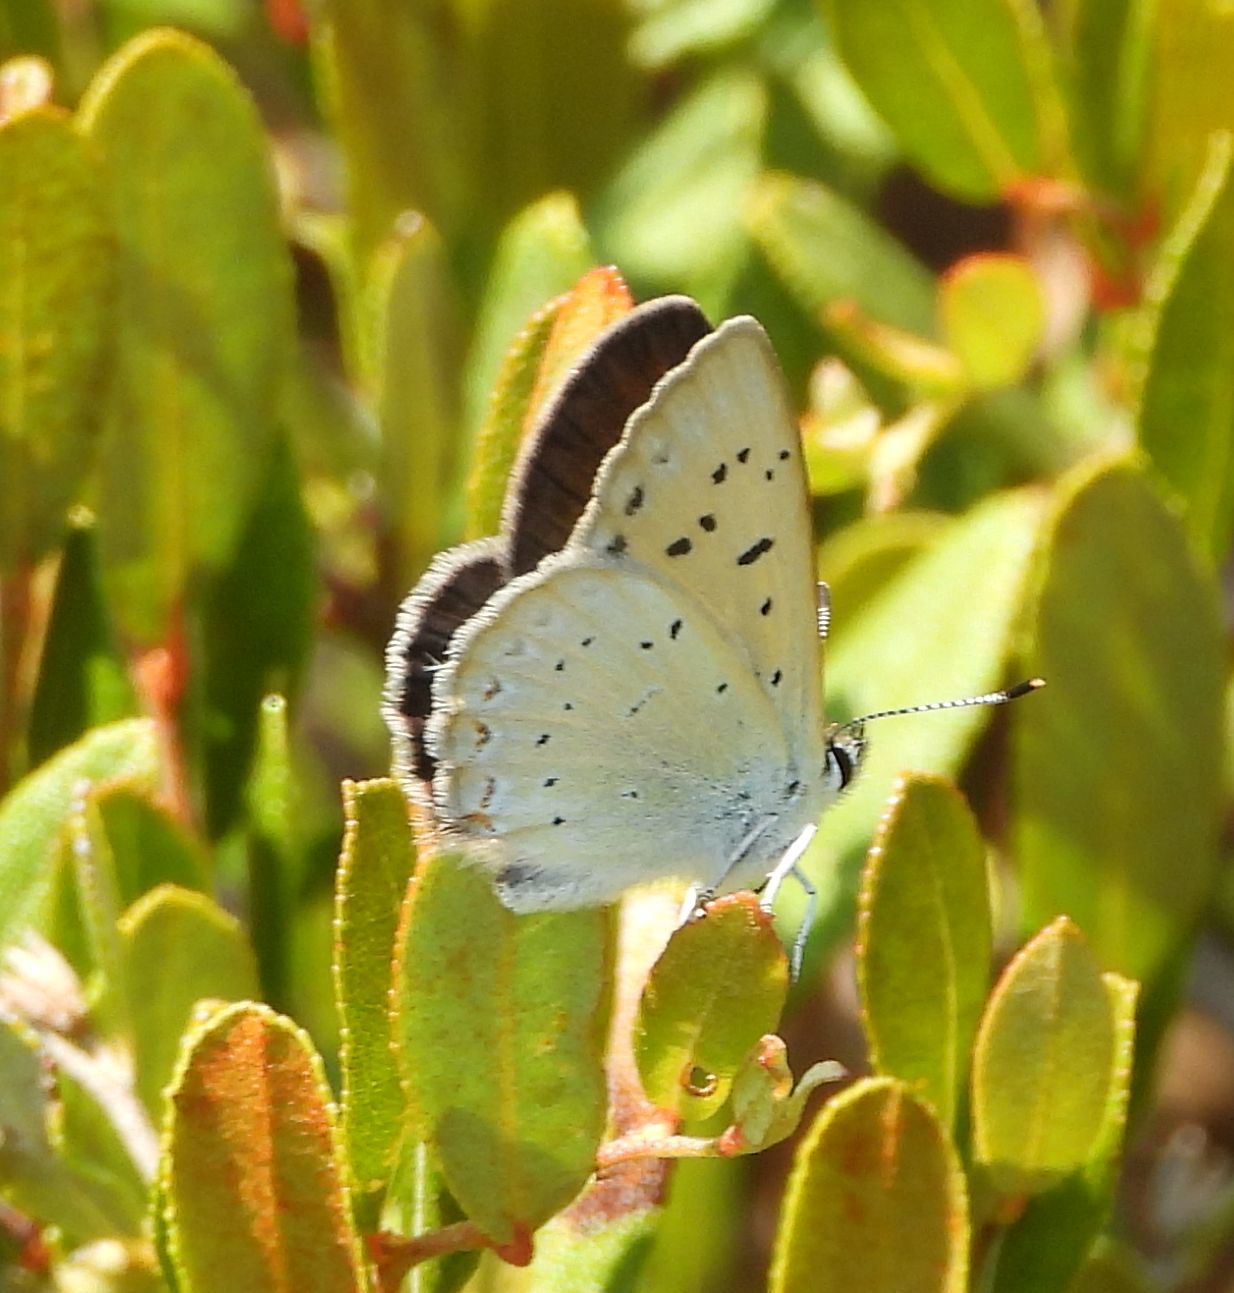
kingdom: Animalia
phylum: Arthropoda
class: Insecta
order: Lepidoptera
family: Lycaenidae
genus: Tharsalea
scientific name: Tharsalea epixanthe
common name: Bog copper
